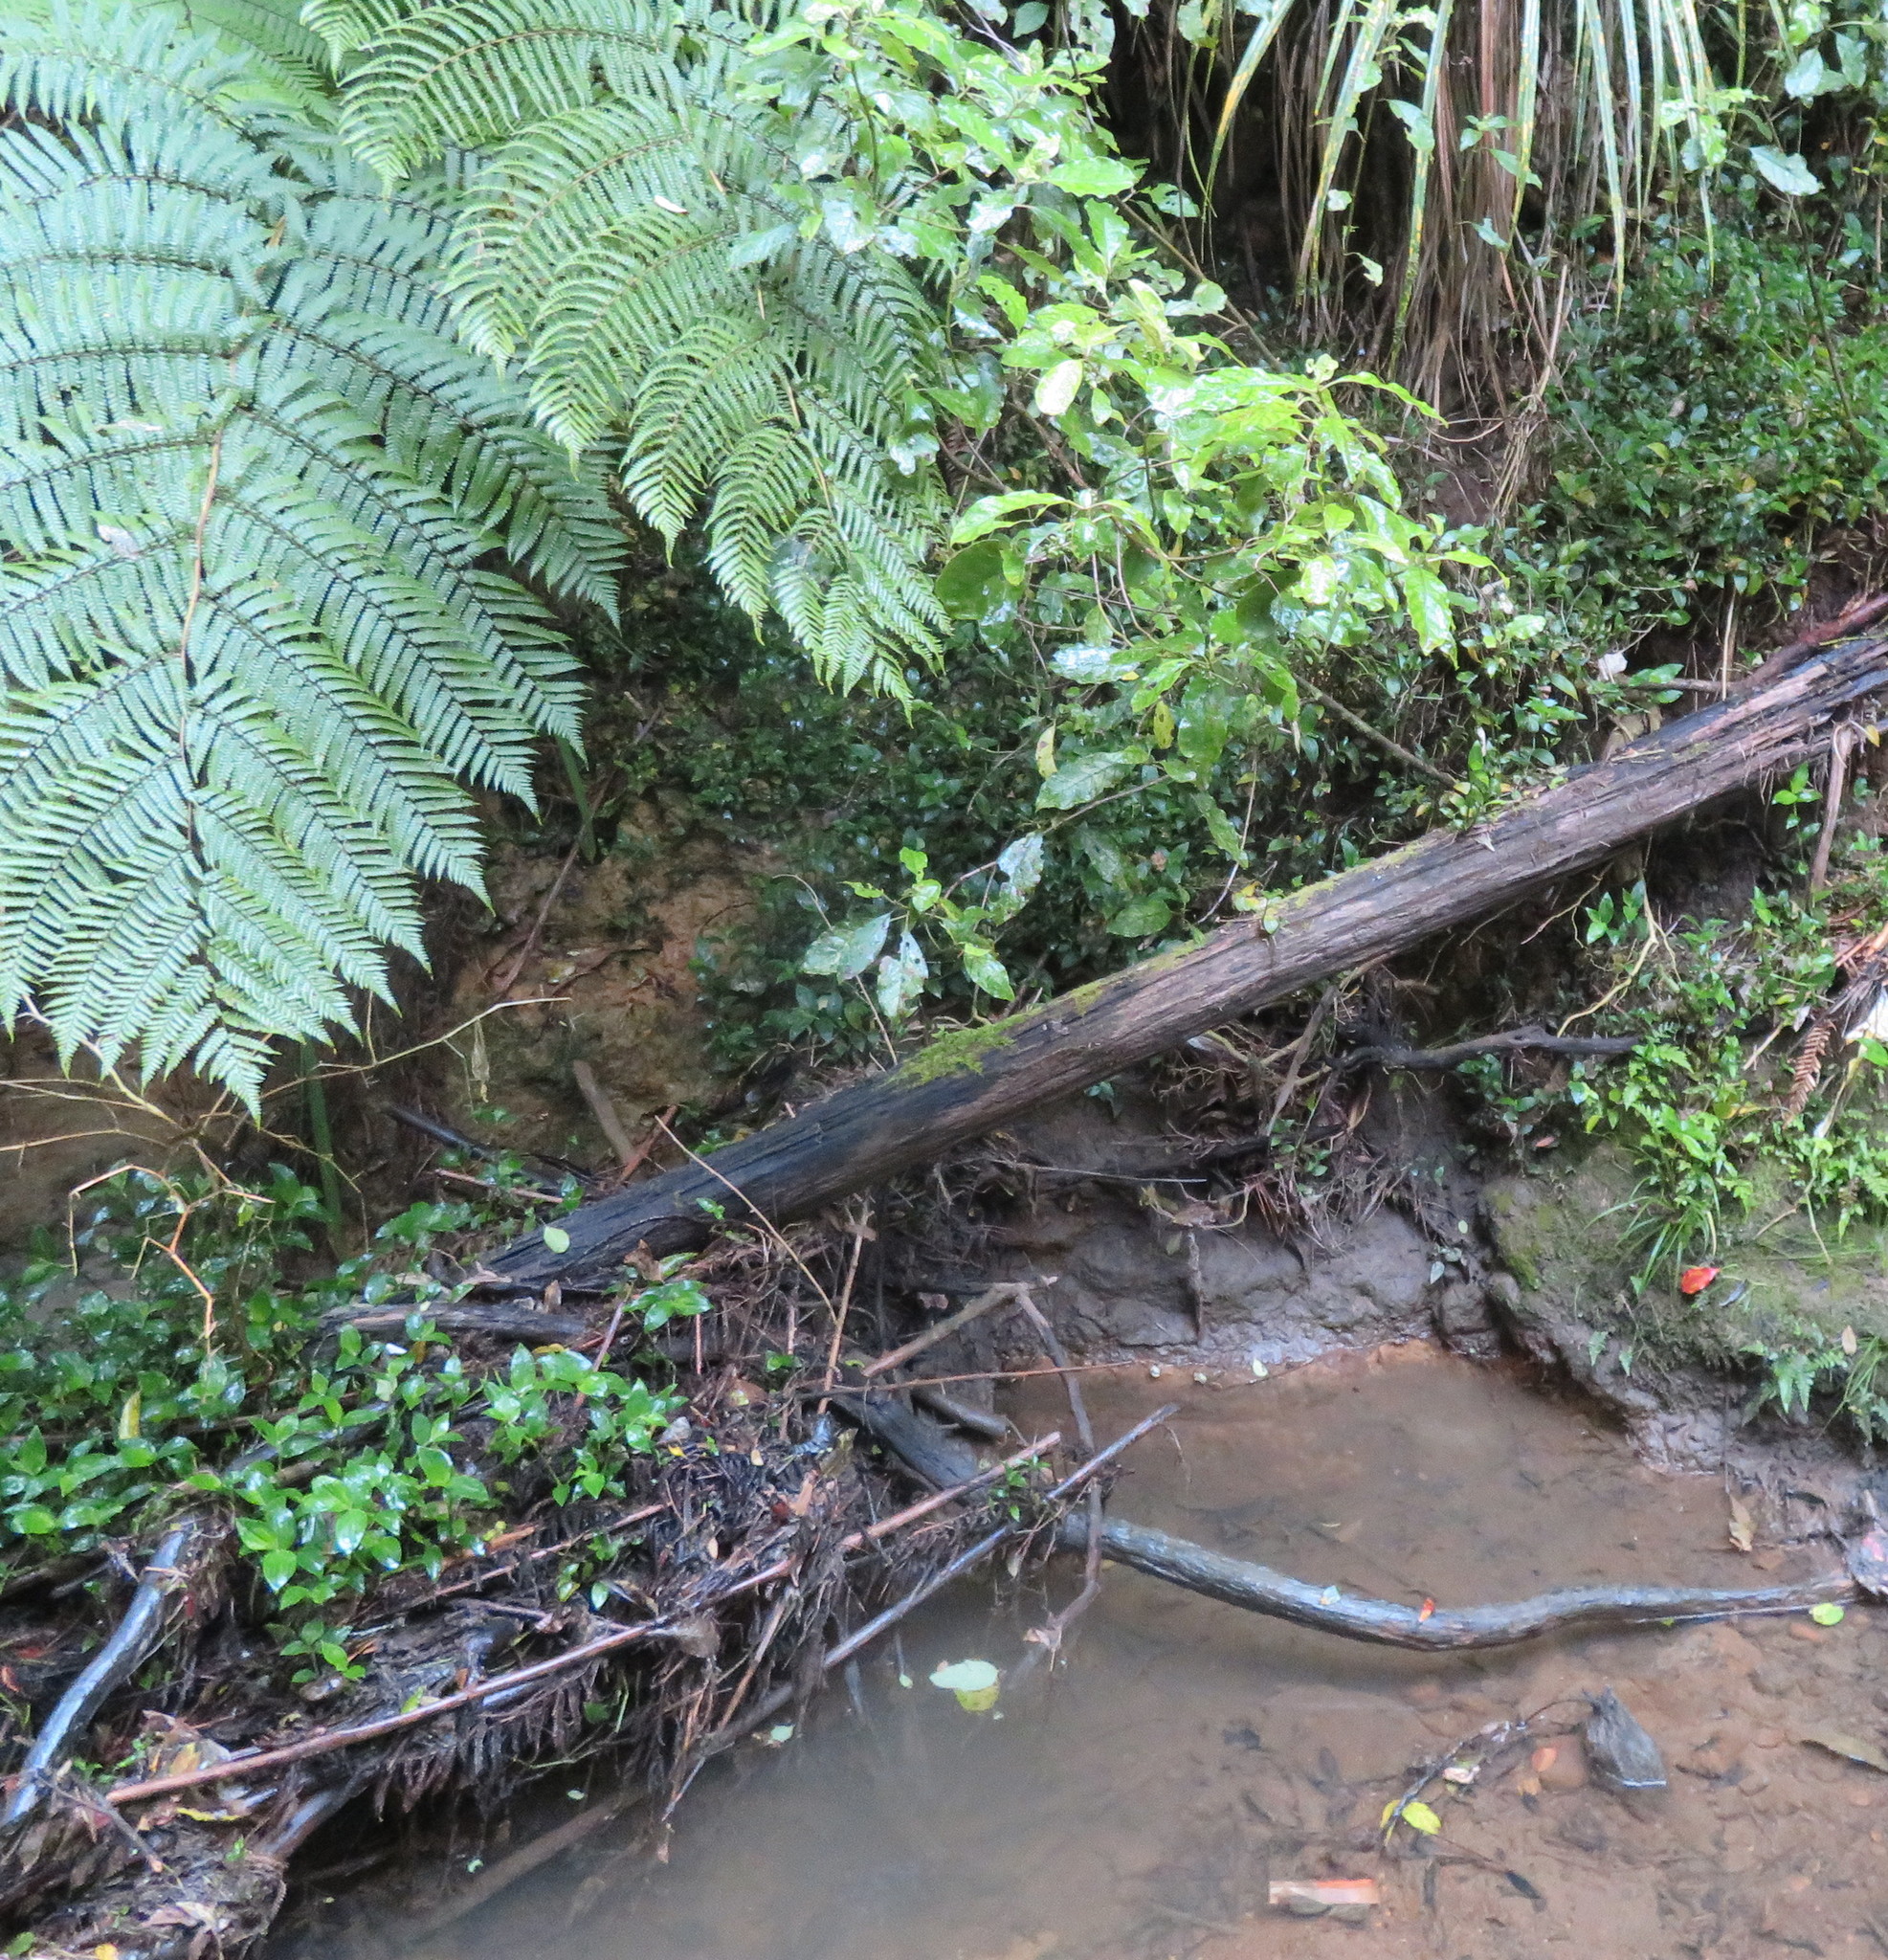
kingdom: Plantae
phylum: Tracheophyta
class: Liliopsida
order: Commelinales
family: Commelinaceae
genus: Tradescantia
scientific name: Tradescantia fluminensis
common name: Wandering-jew
